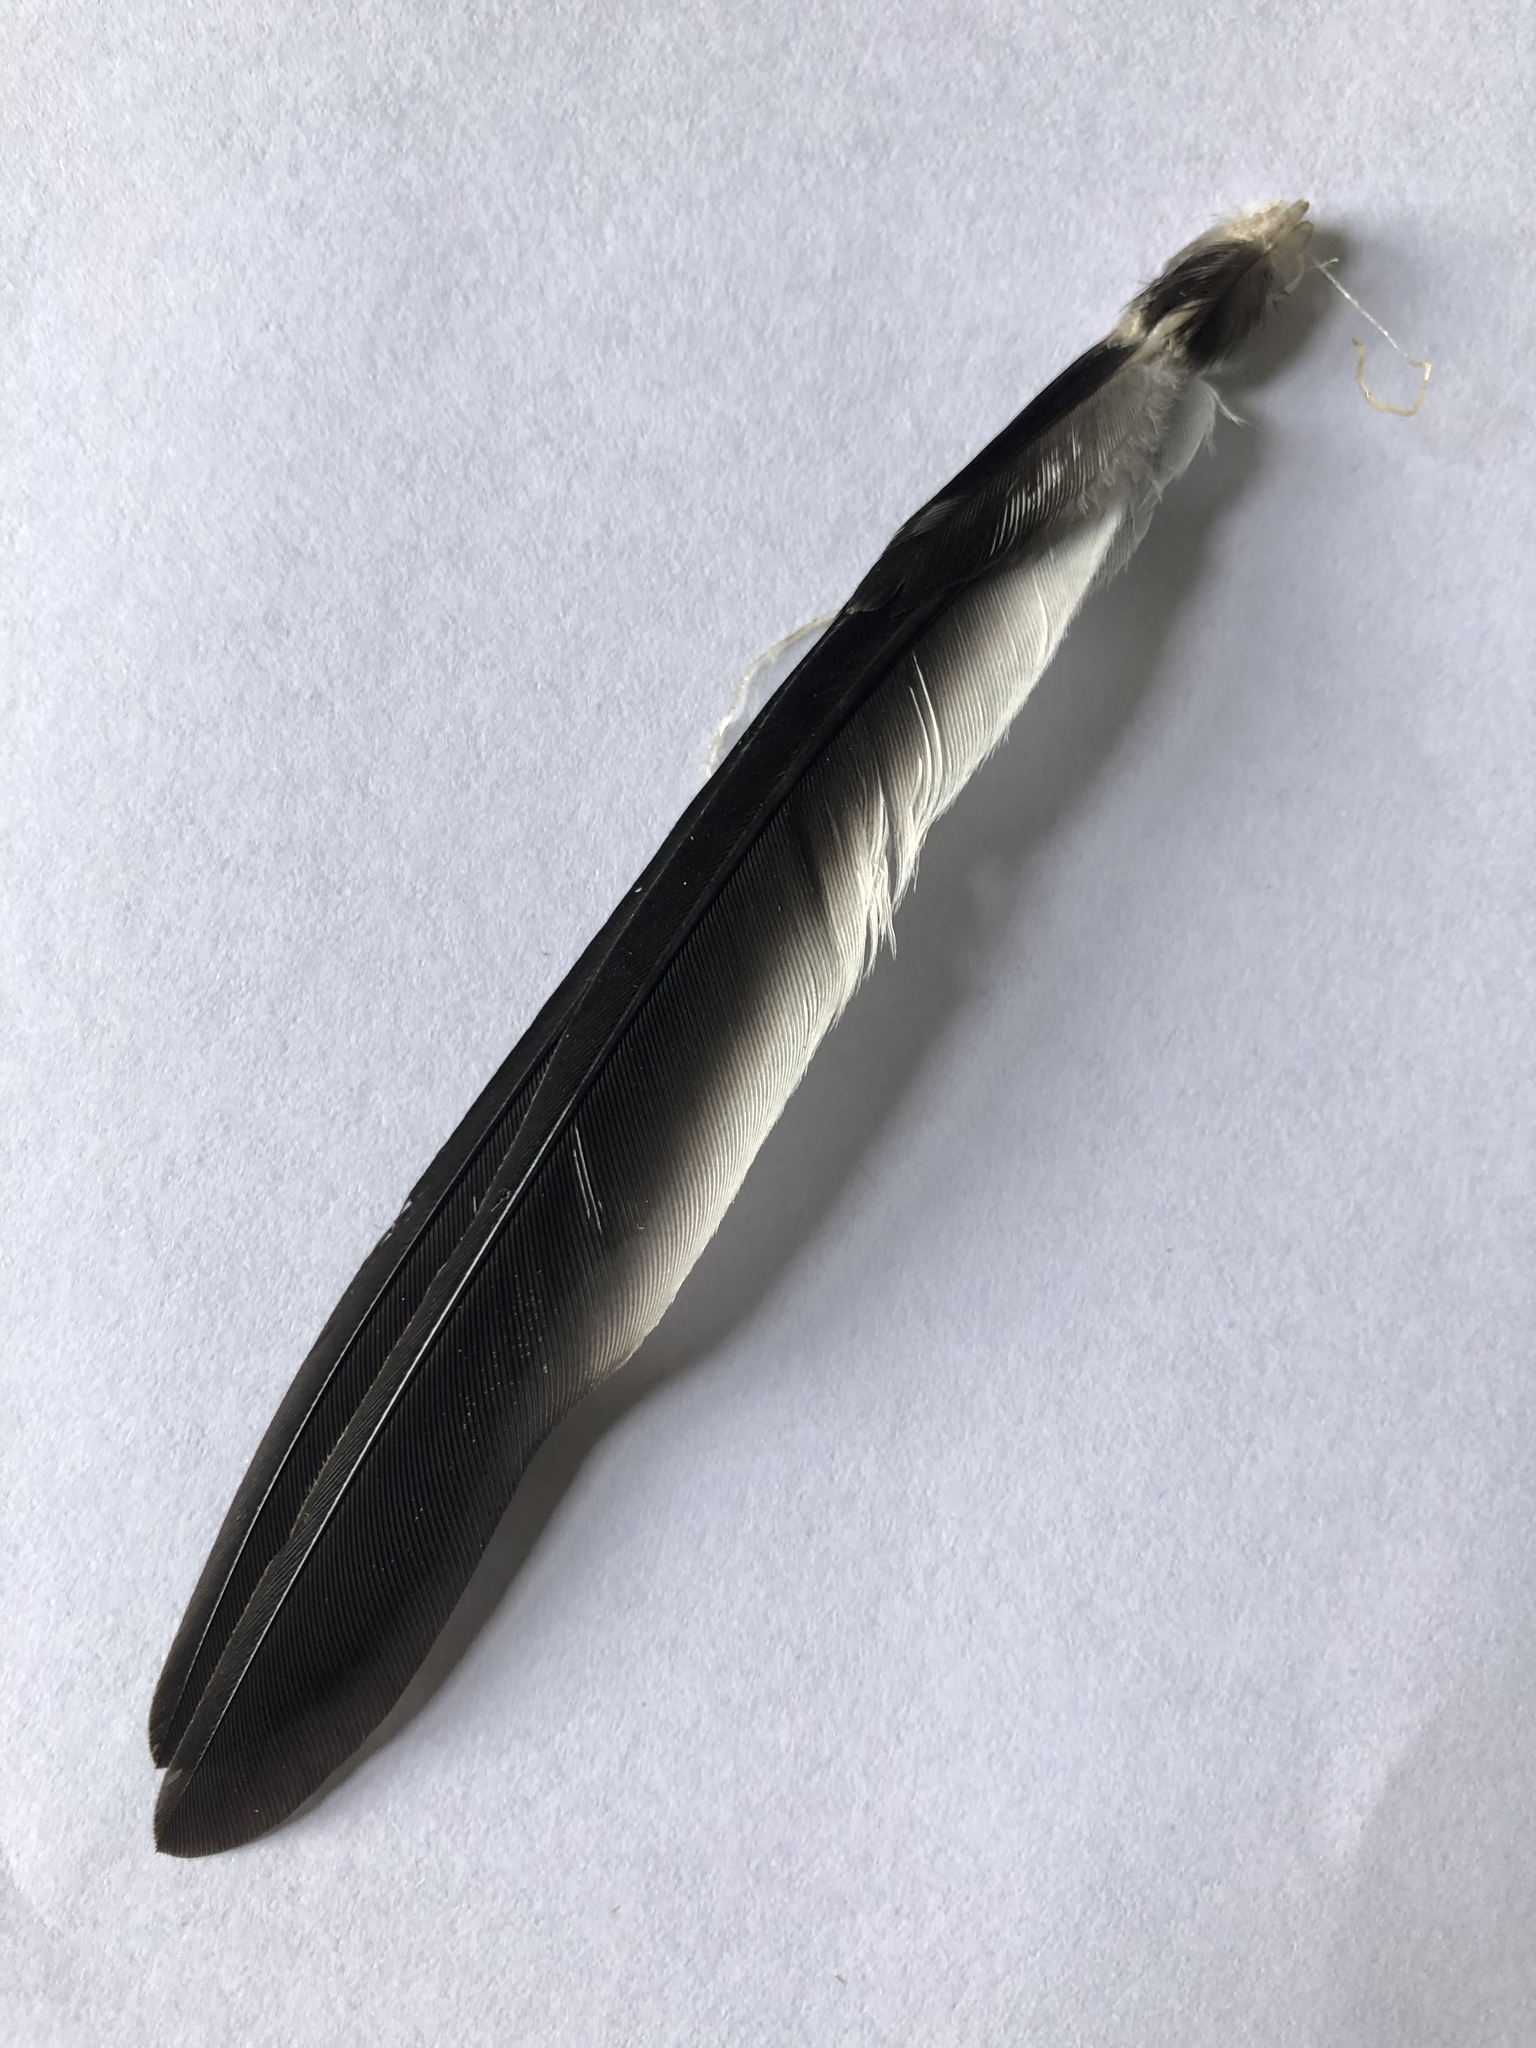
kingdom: Animalia
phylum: Chordata
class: Aves
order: Passeriformes
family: Cotingidae
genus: Tityra
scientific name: Tityra semifasciata
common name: Masked tityra
